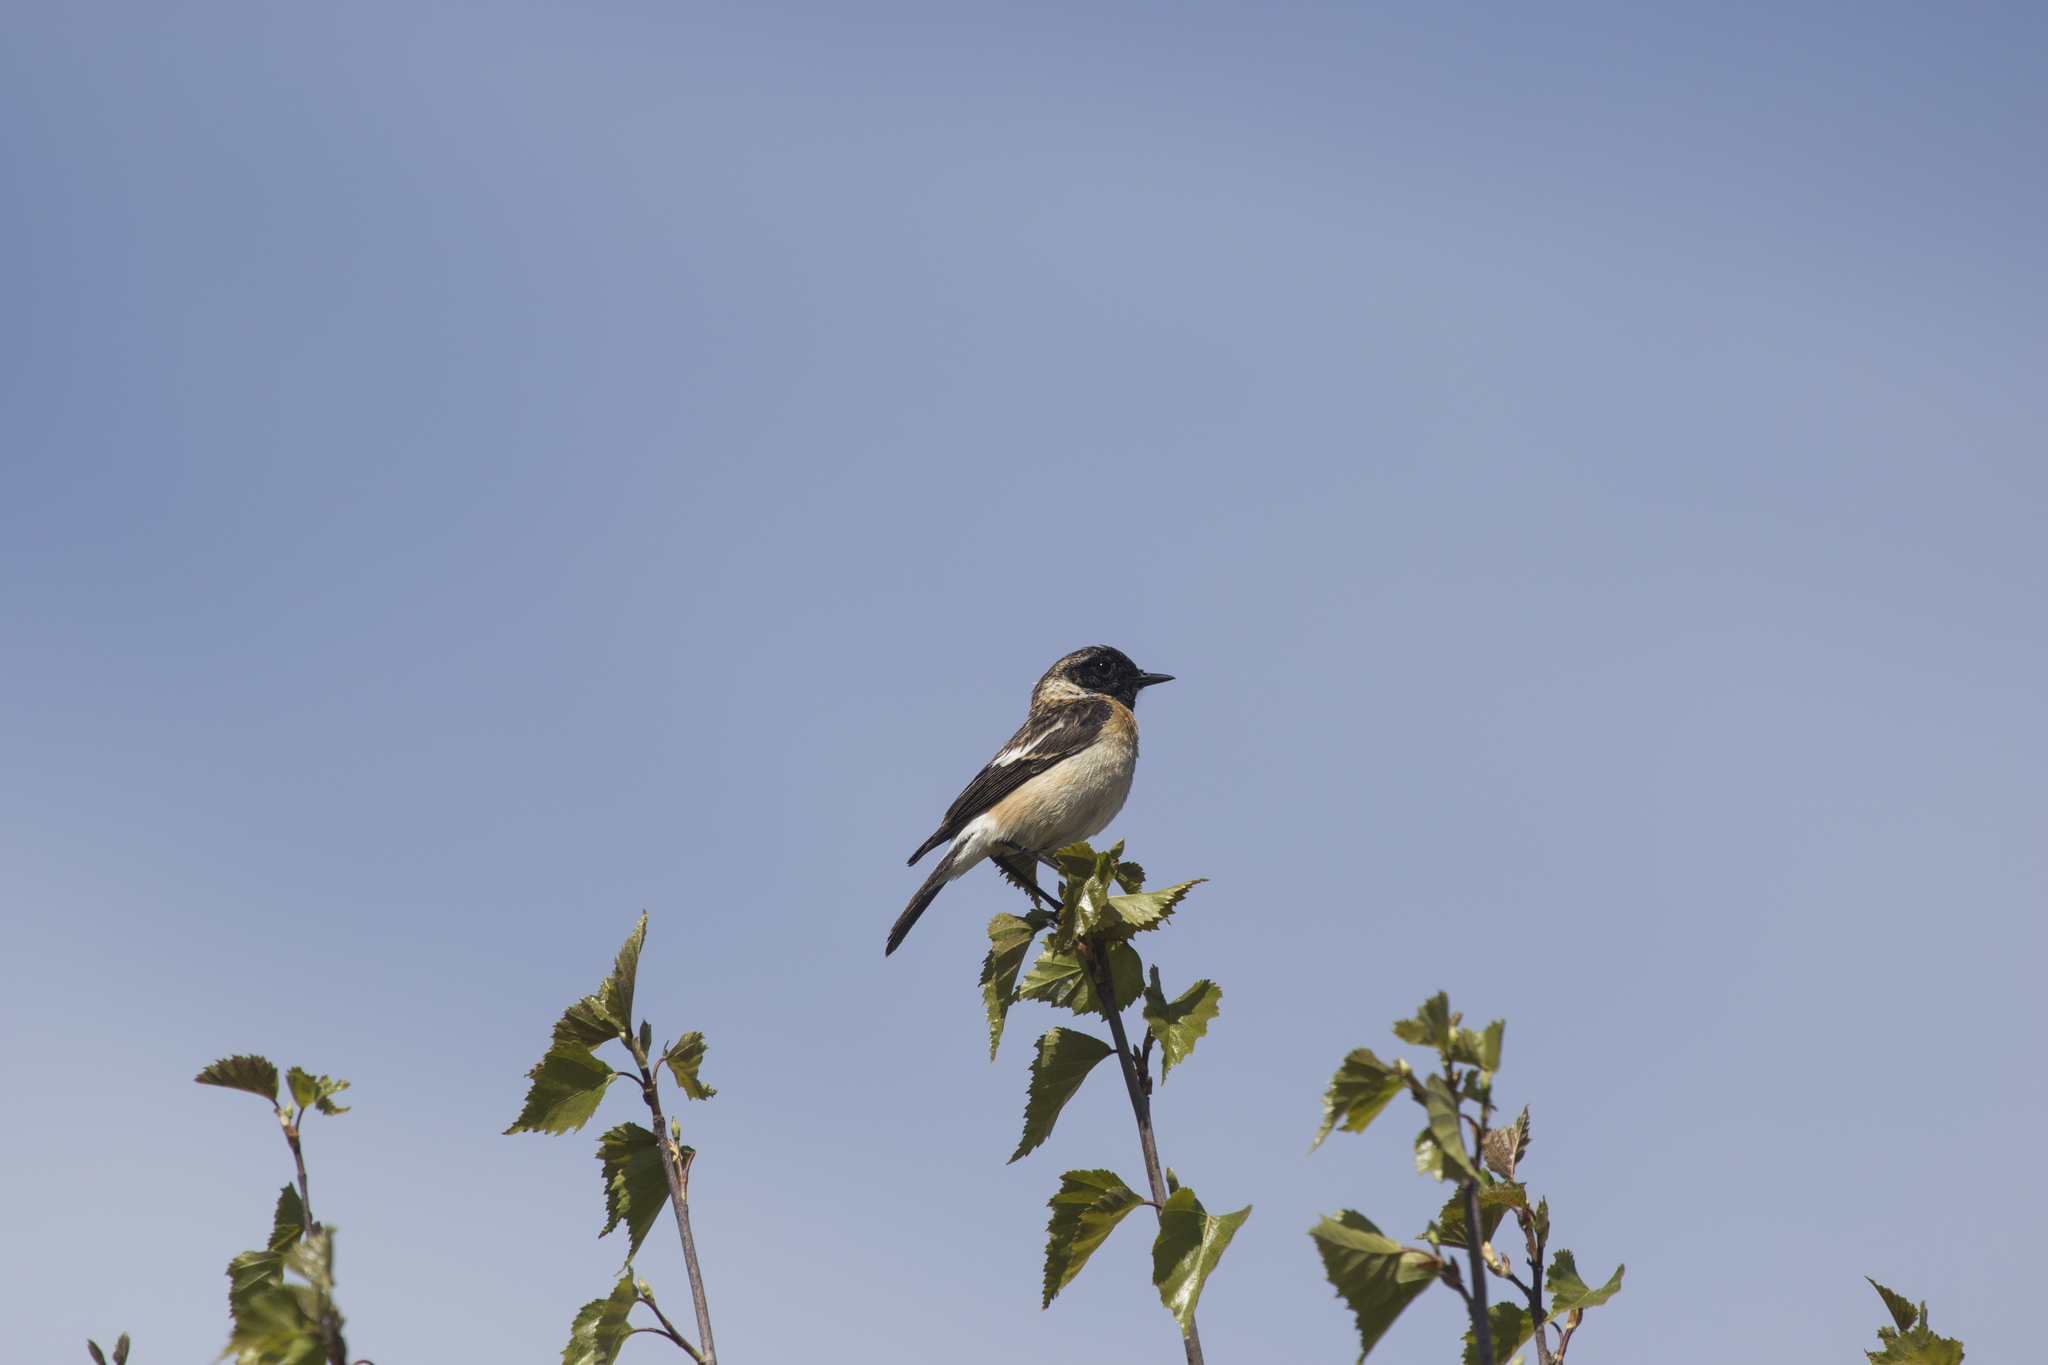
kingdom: Animalia
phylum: Chordata
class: Aves
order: Passeriformes
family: Muscicapidae
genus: Saxicola
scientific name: Saxicola maurus
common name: Siberian stonechat
